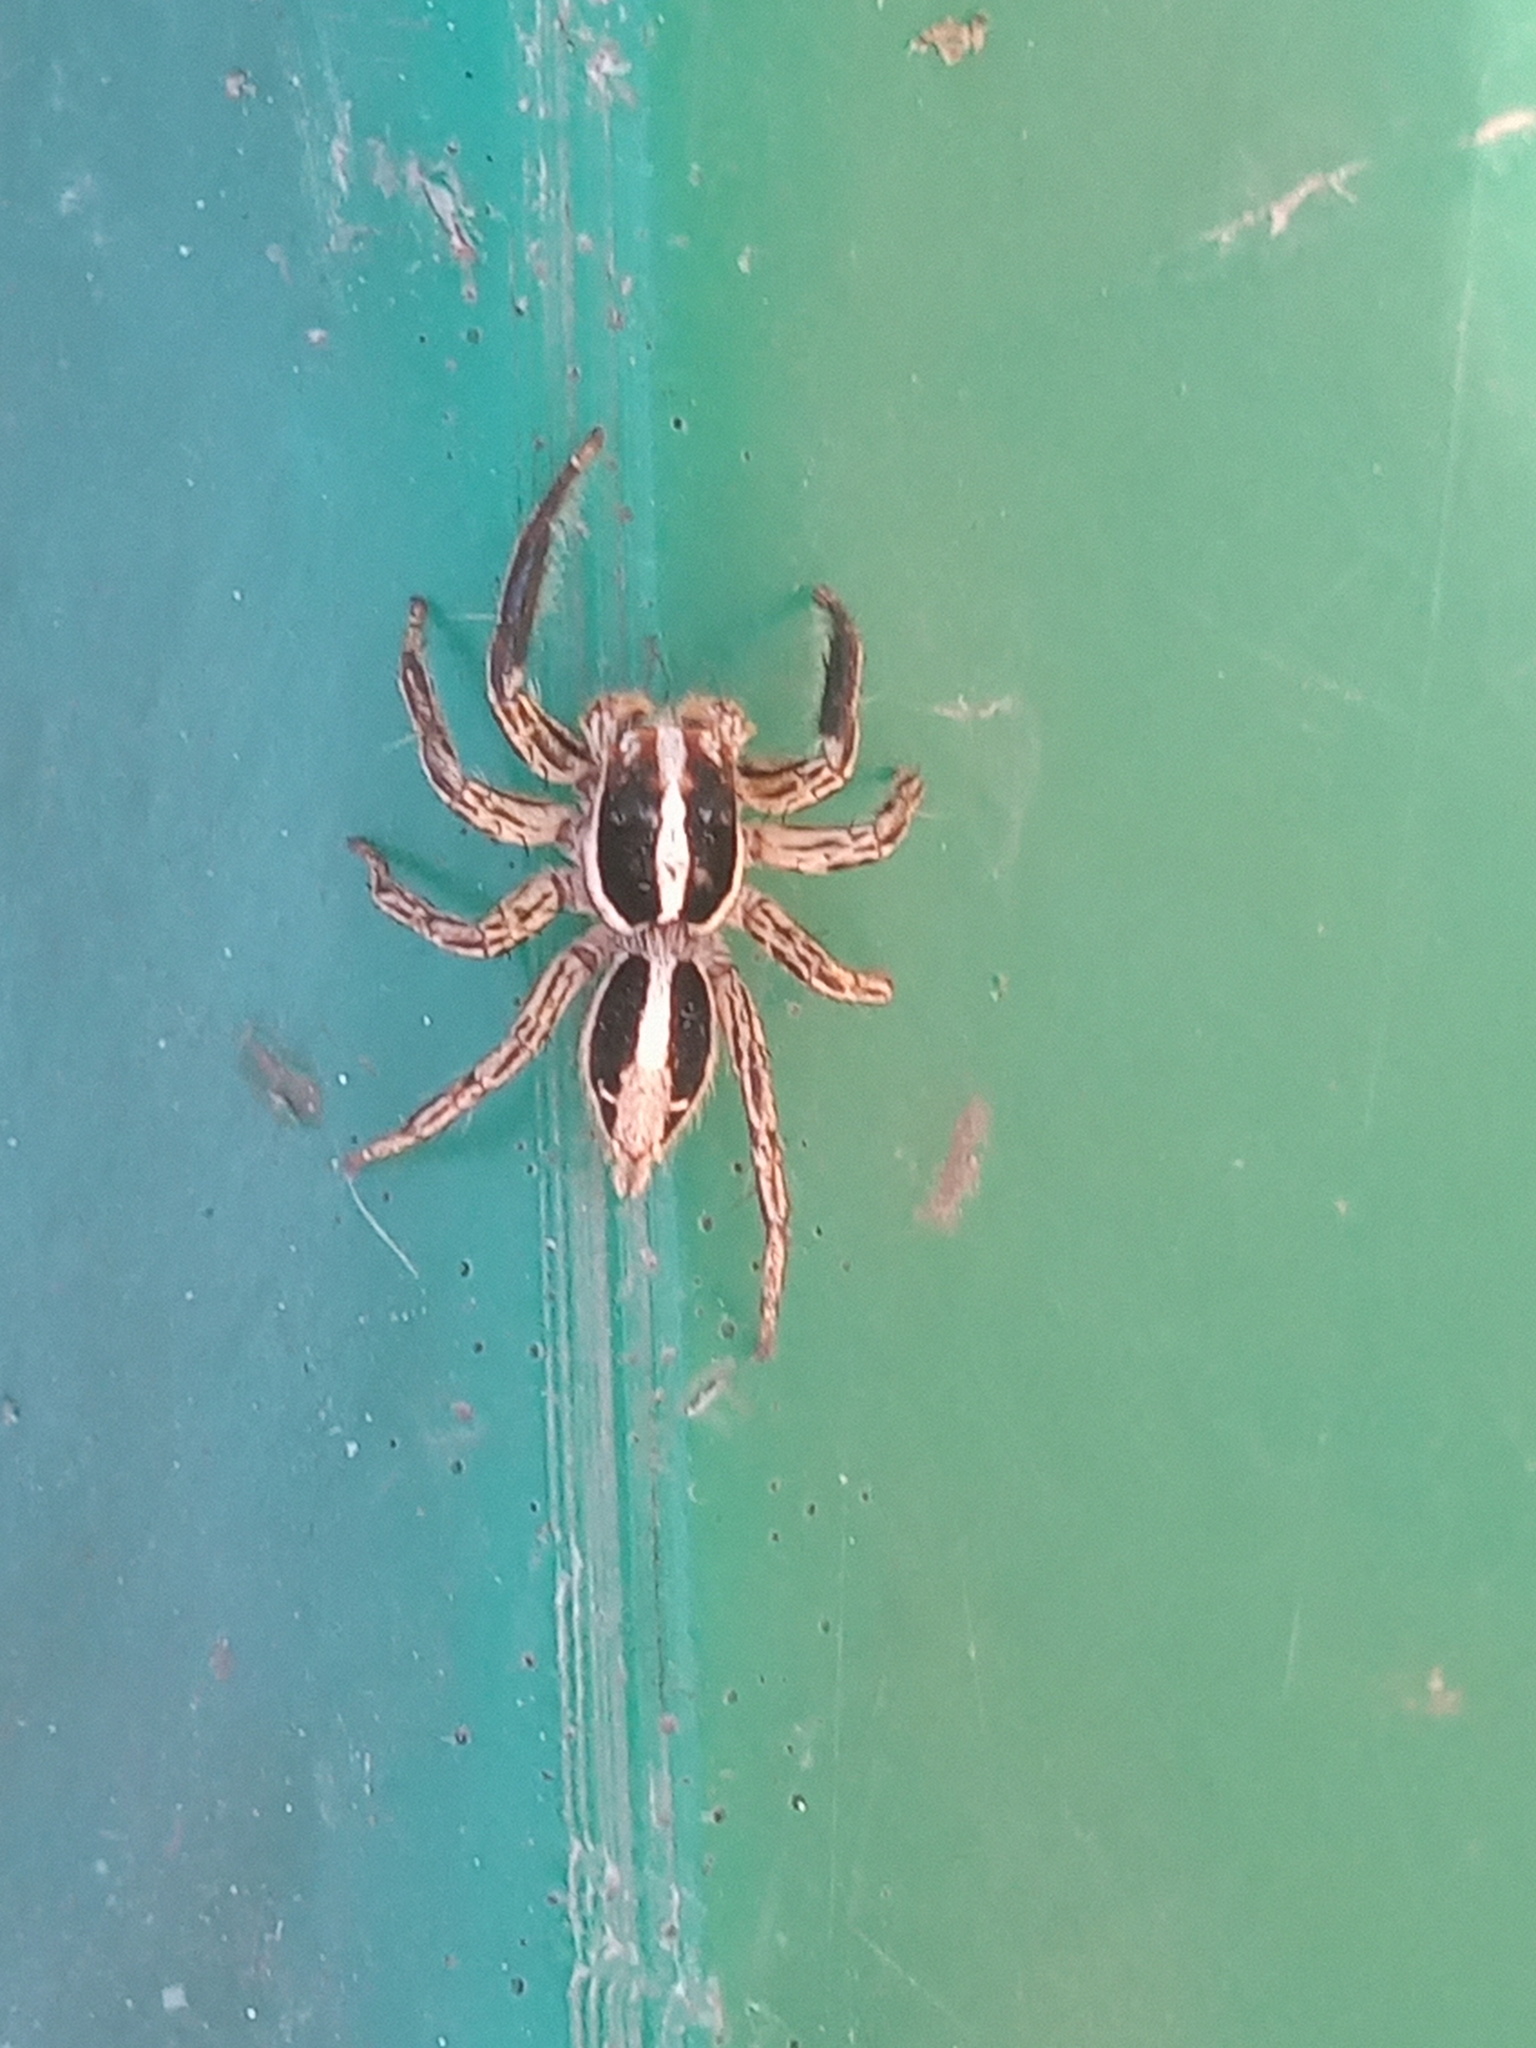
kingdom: Animalia
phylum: Arthropoda
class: Arachnida
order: Araneae
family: Salticidae
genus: Plexippus
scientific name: Plexippus paykulli
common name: Pantropical jumper
